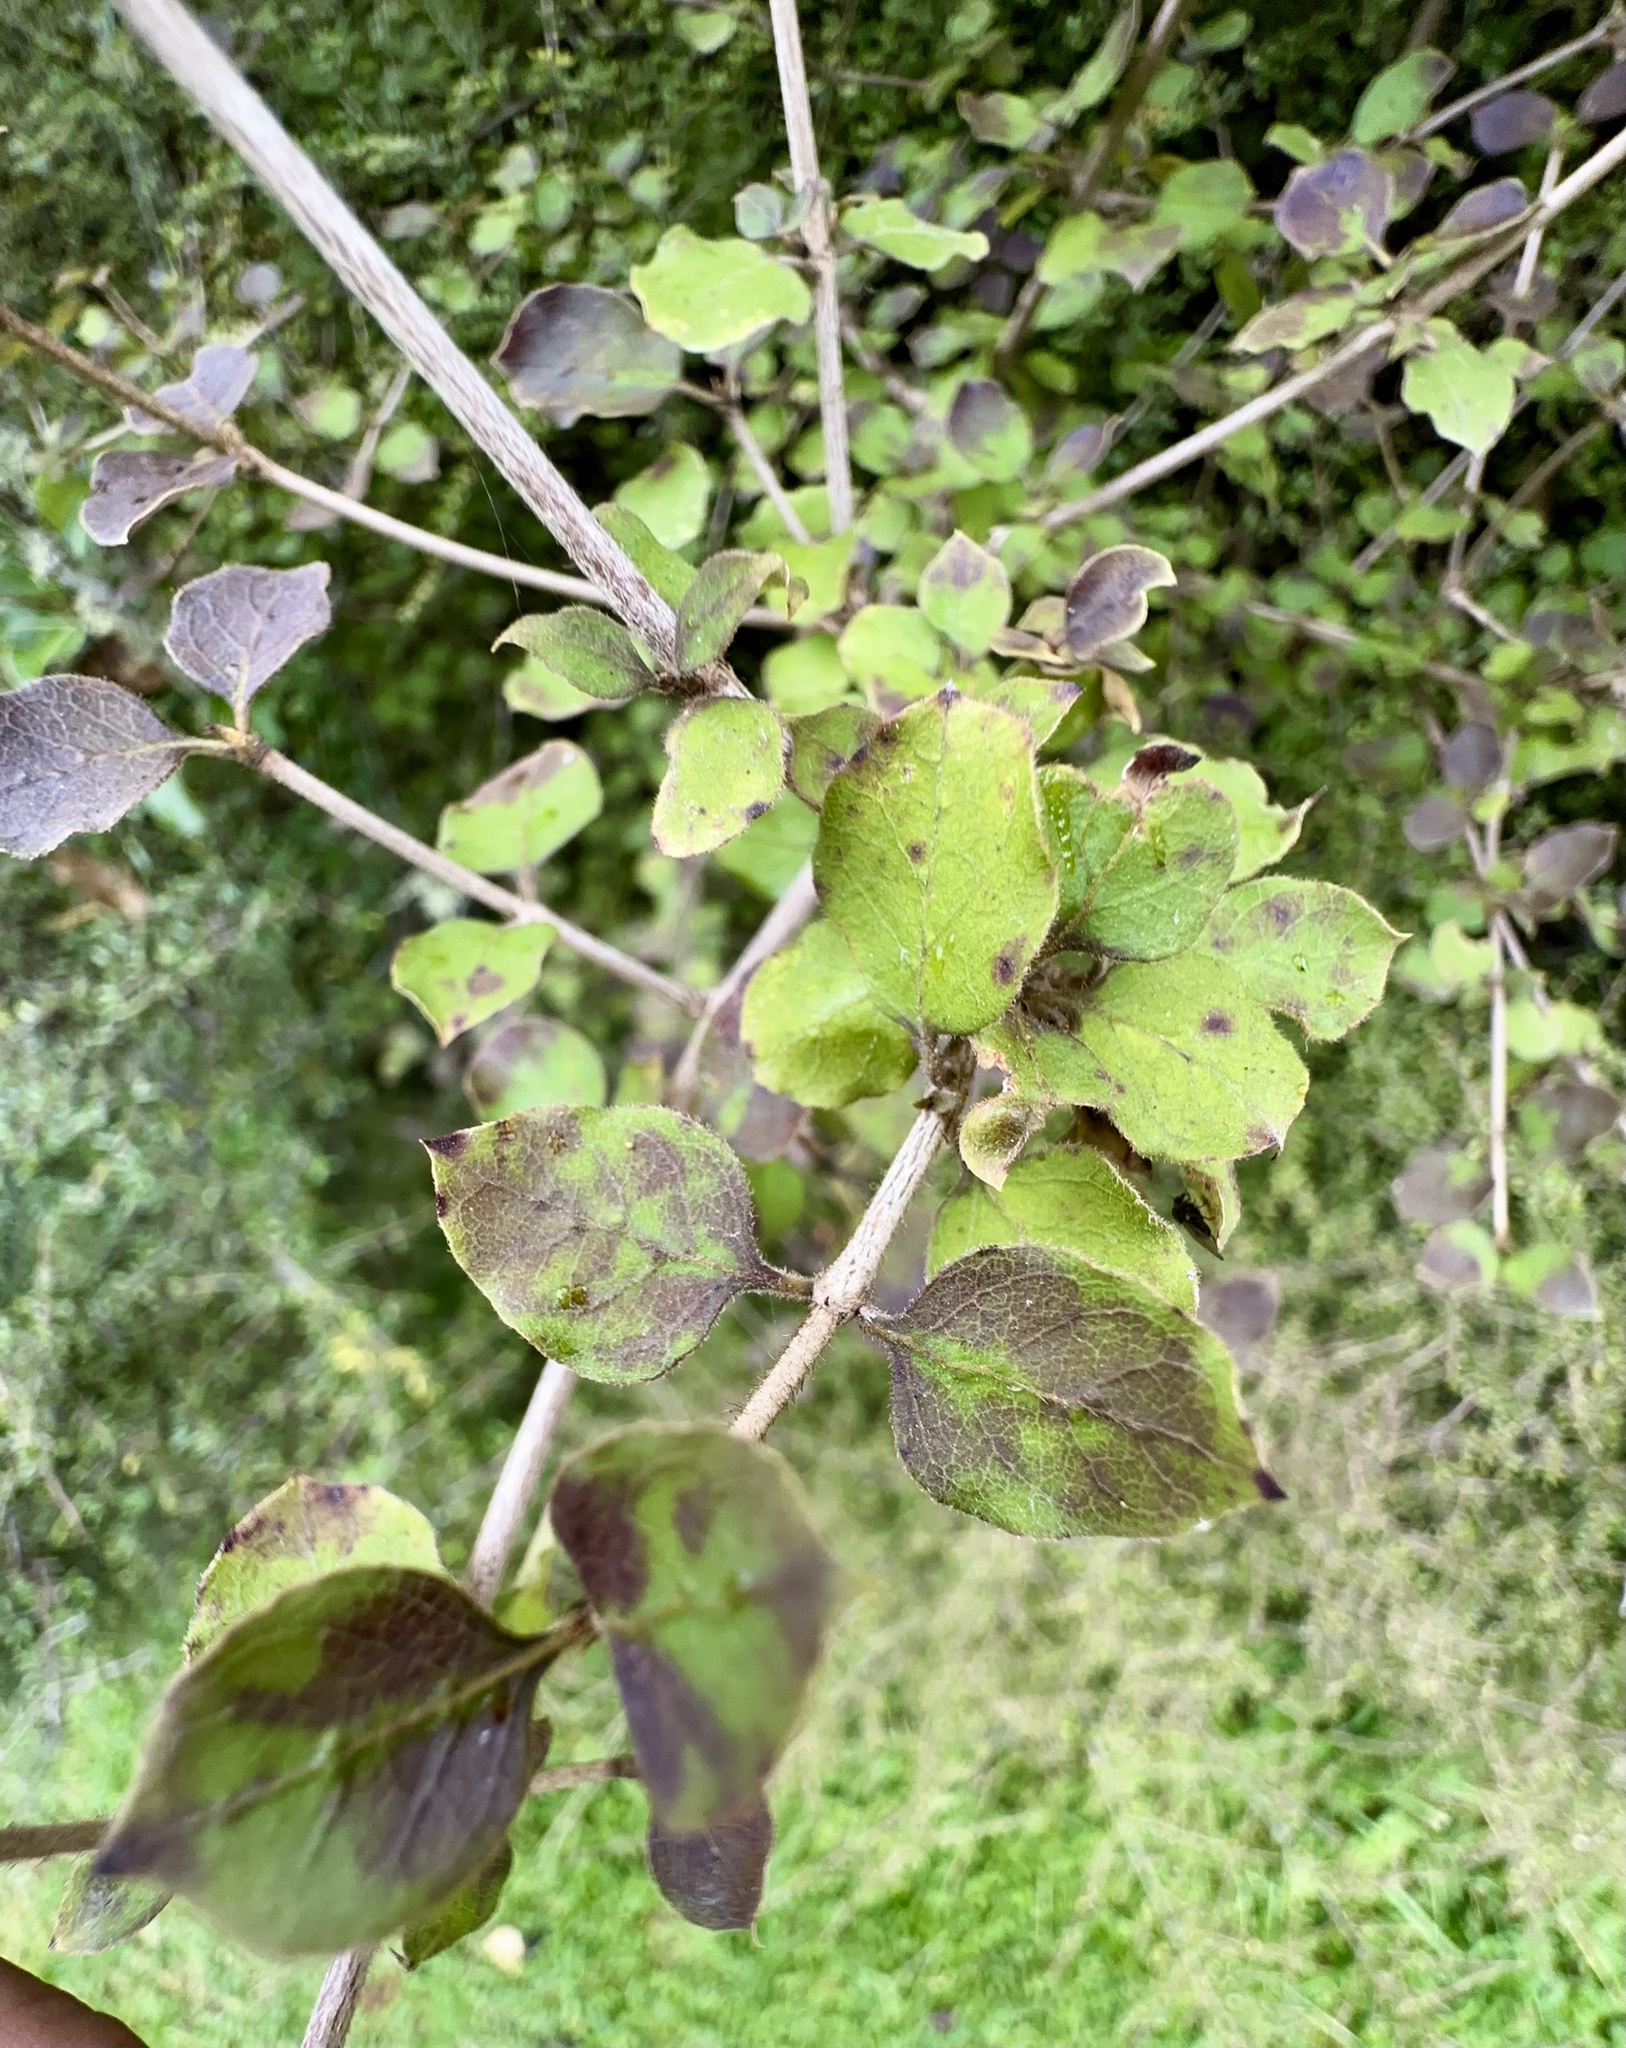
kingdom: Plantae
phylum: Tracheophyta
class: Magnoliopsida
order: Gentianales
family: Rubiaceae
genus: Coprosma
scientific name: Coprosma rotundifolia
